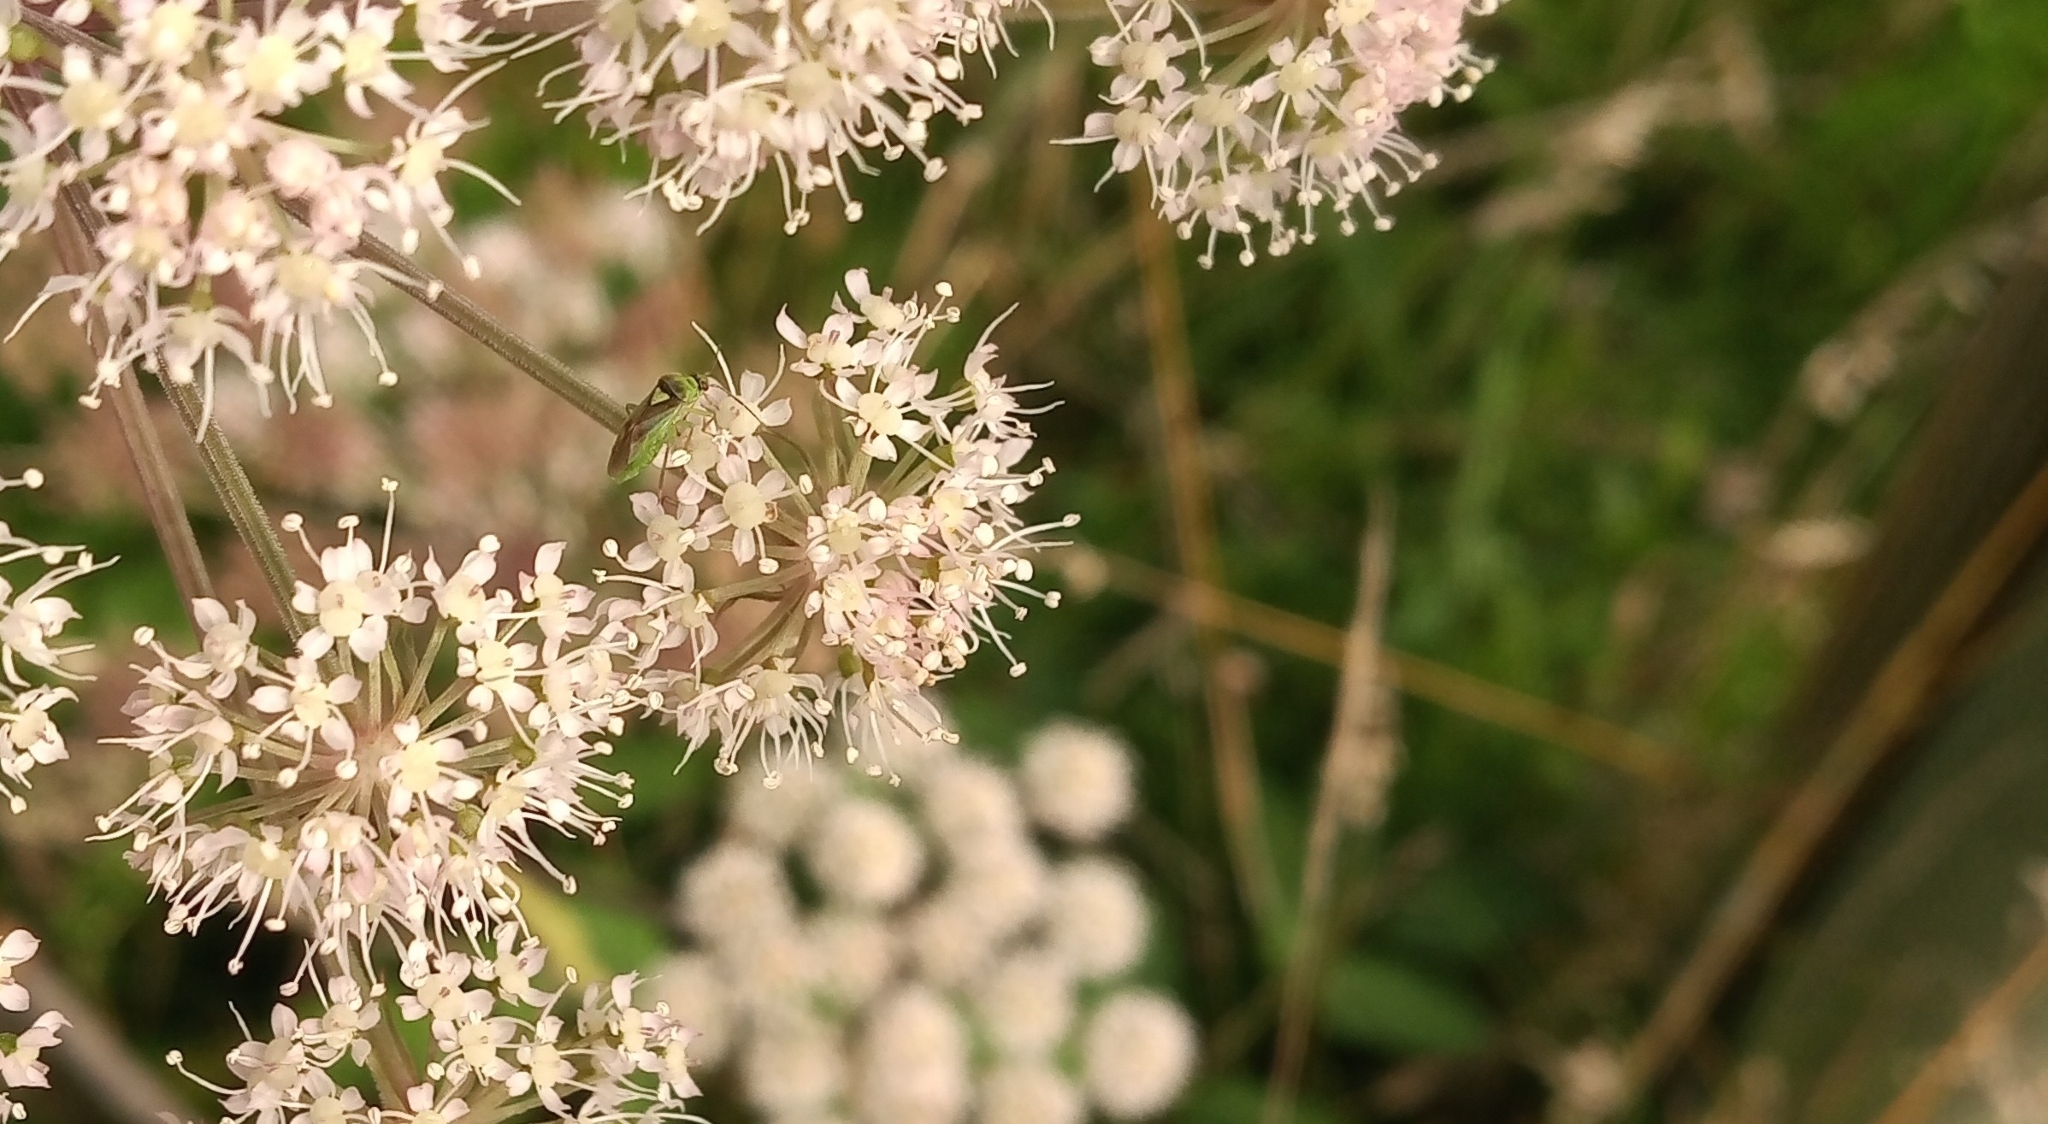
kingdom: Animalia
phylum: Arthropoda
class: Insecta
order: Hemiptera
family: Miridae
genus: Orthops
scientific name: Orthops campestris
